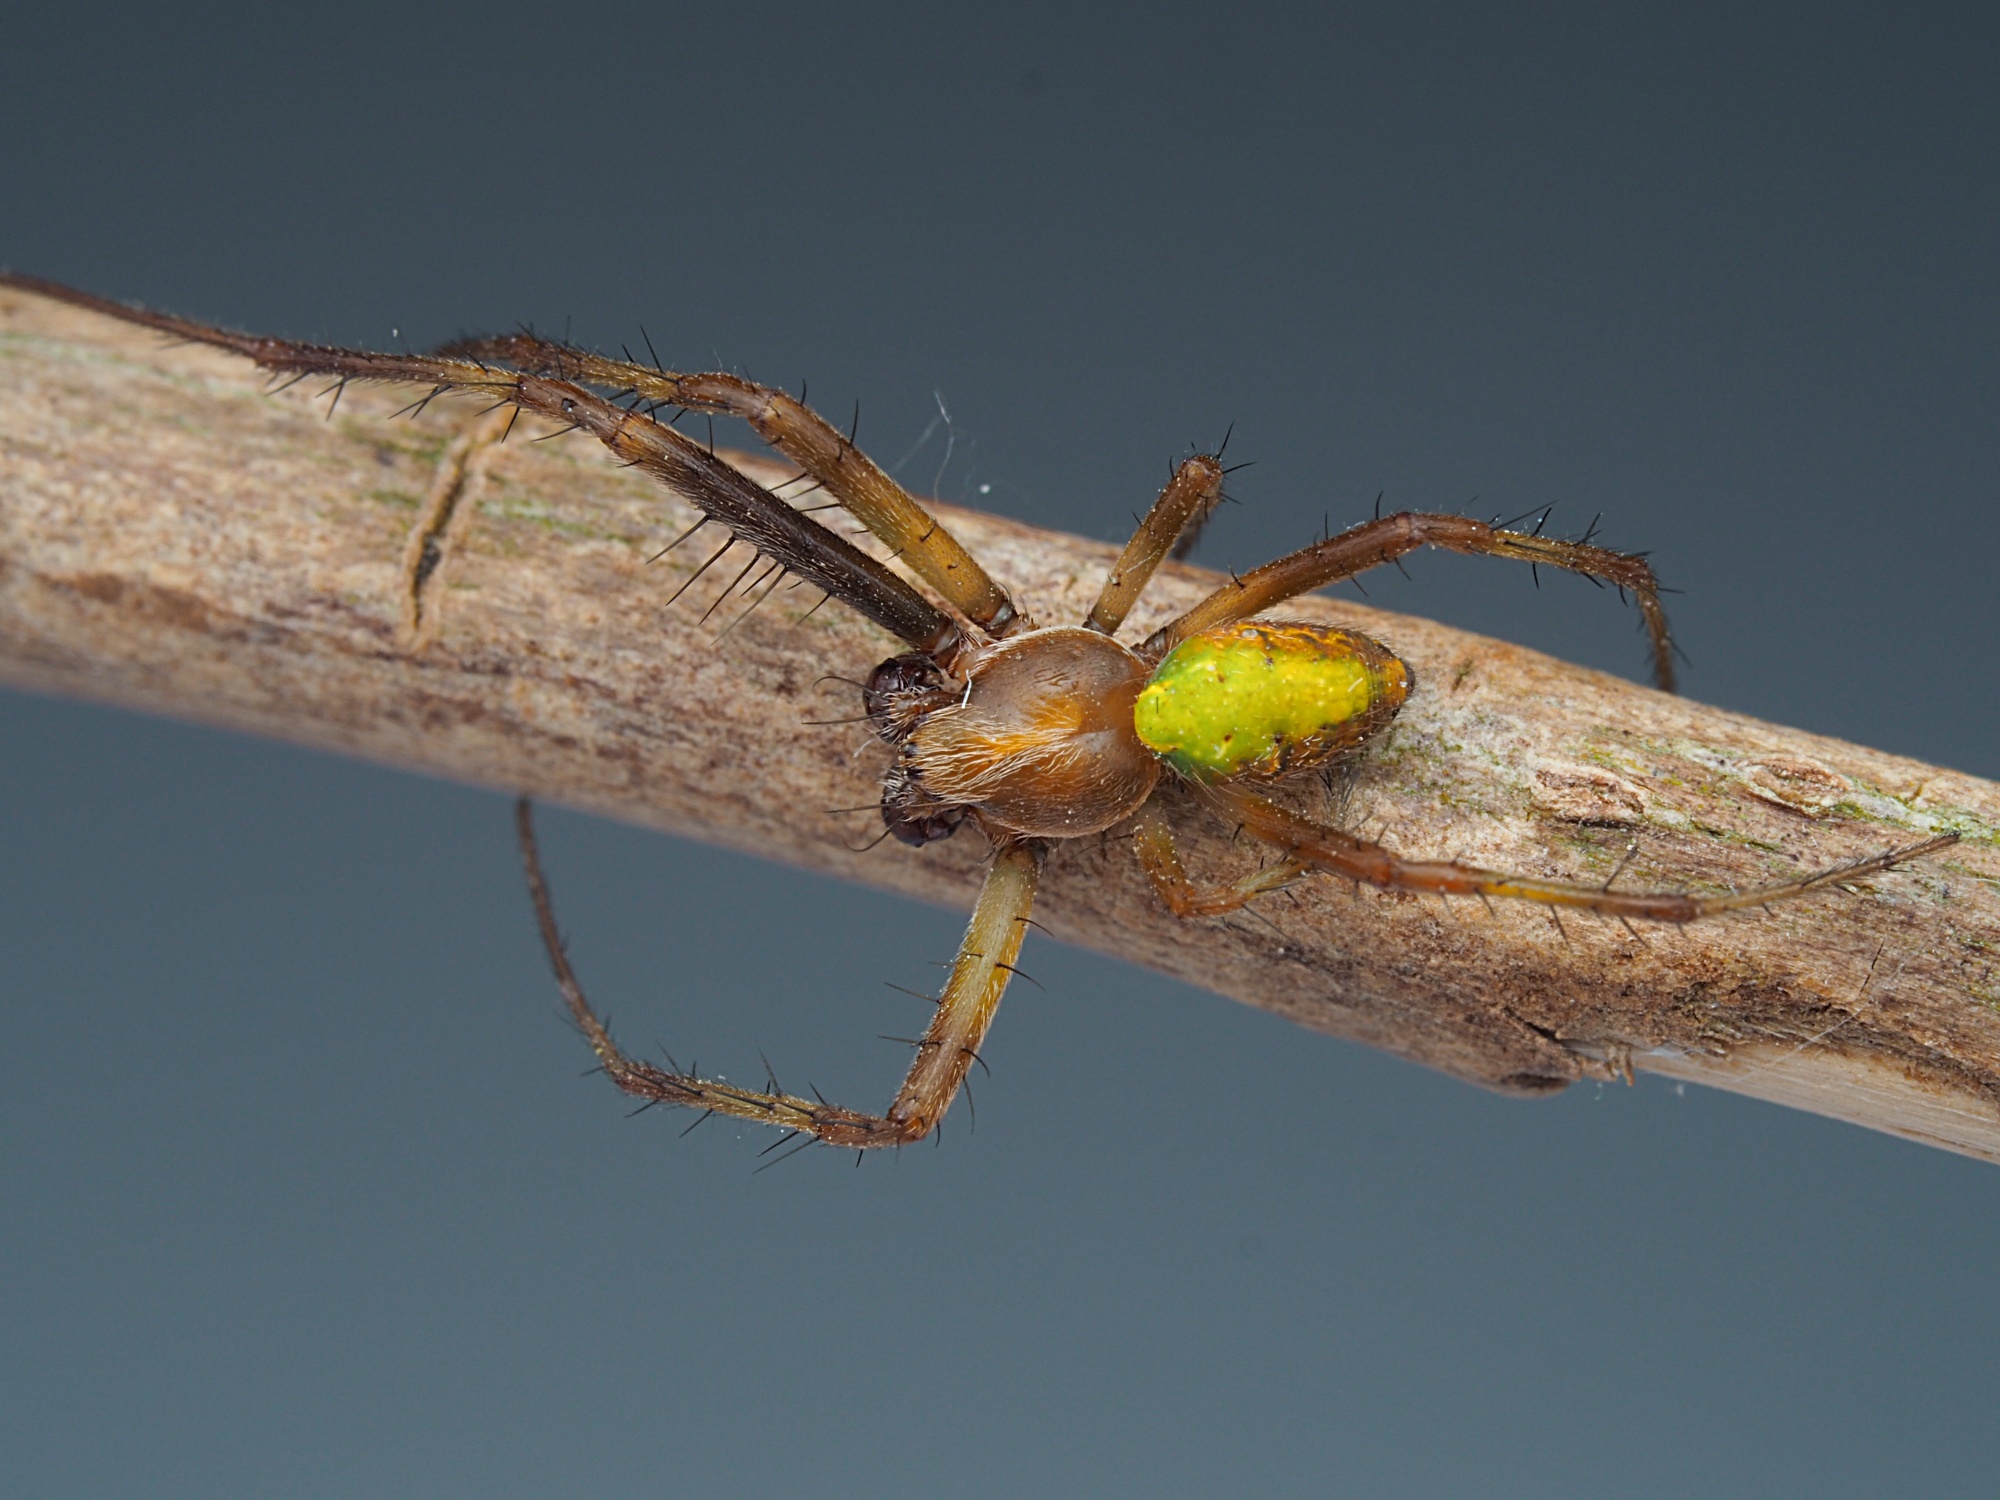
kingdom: Animalia
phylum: Arthropoda
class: Arachnida
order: Araneae
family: Araneidae
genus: Colaranea
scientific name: Colaranea viriditas
